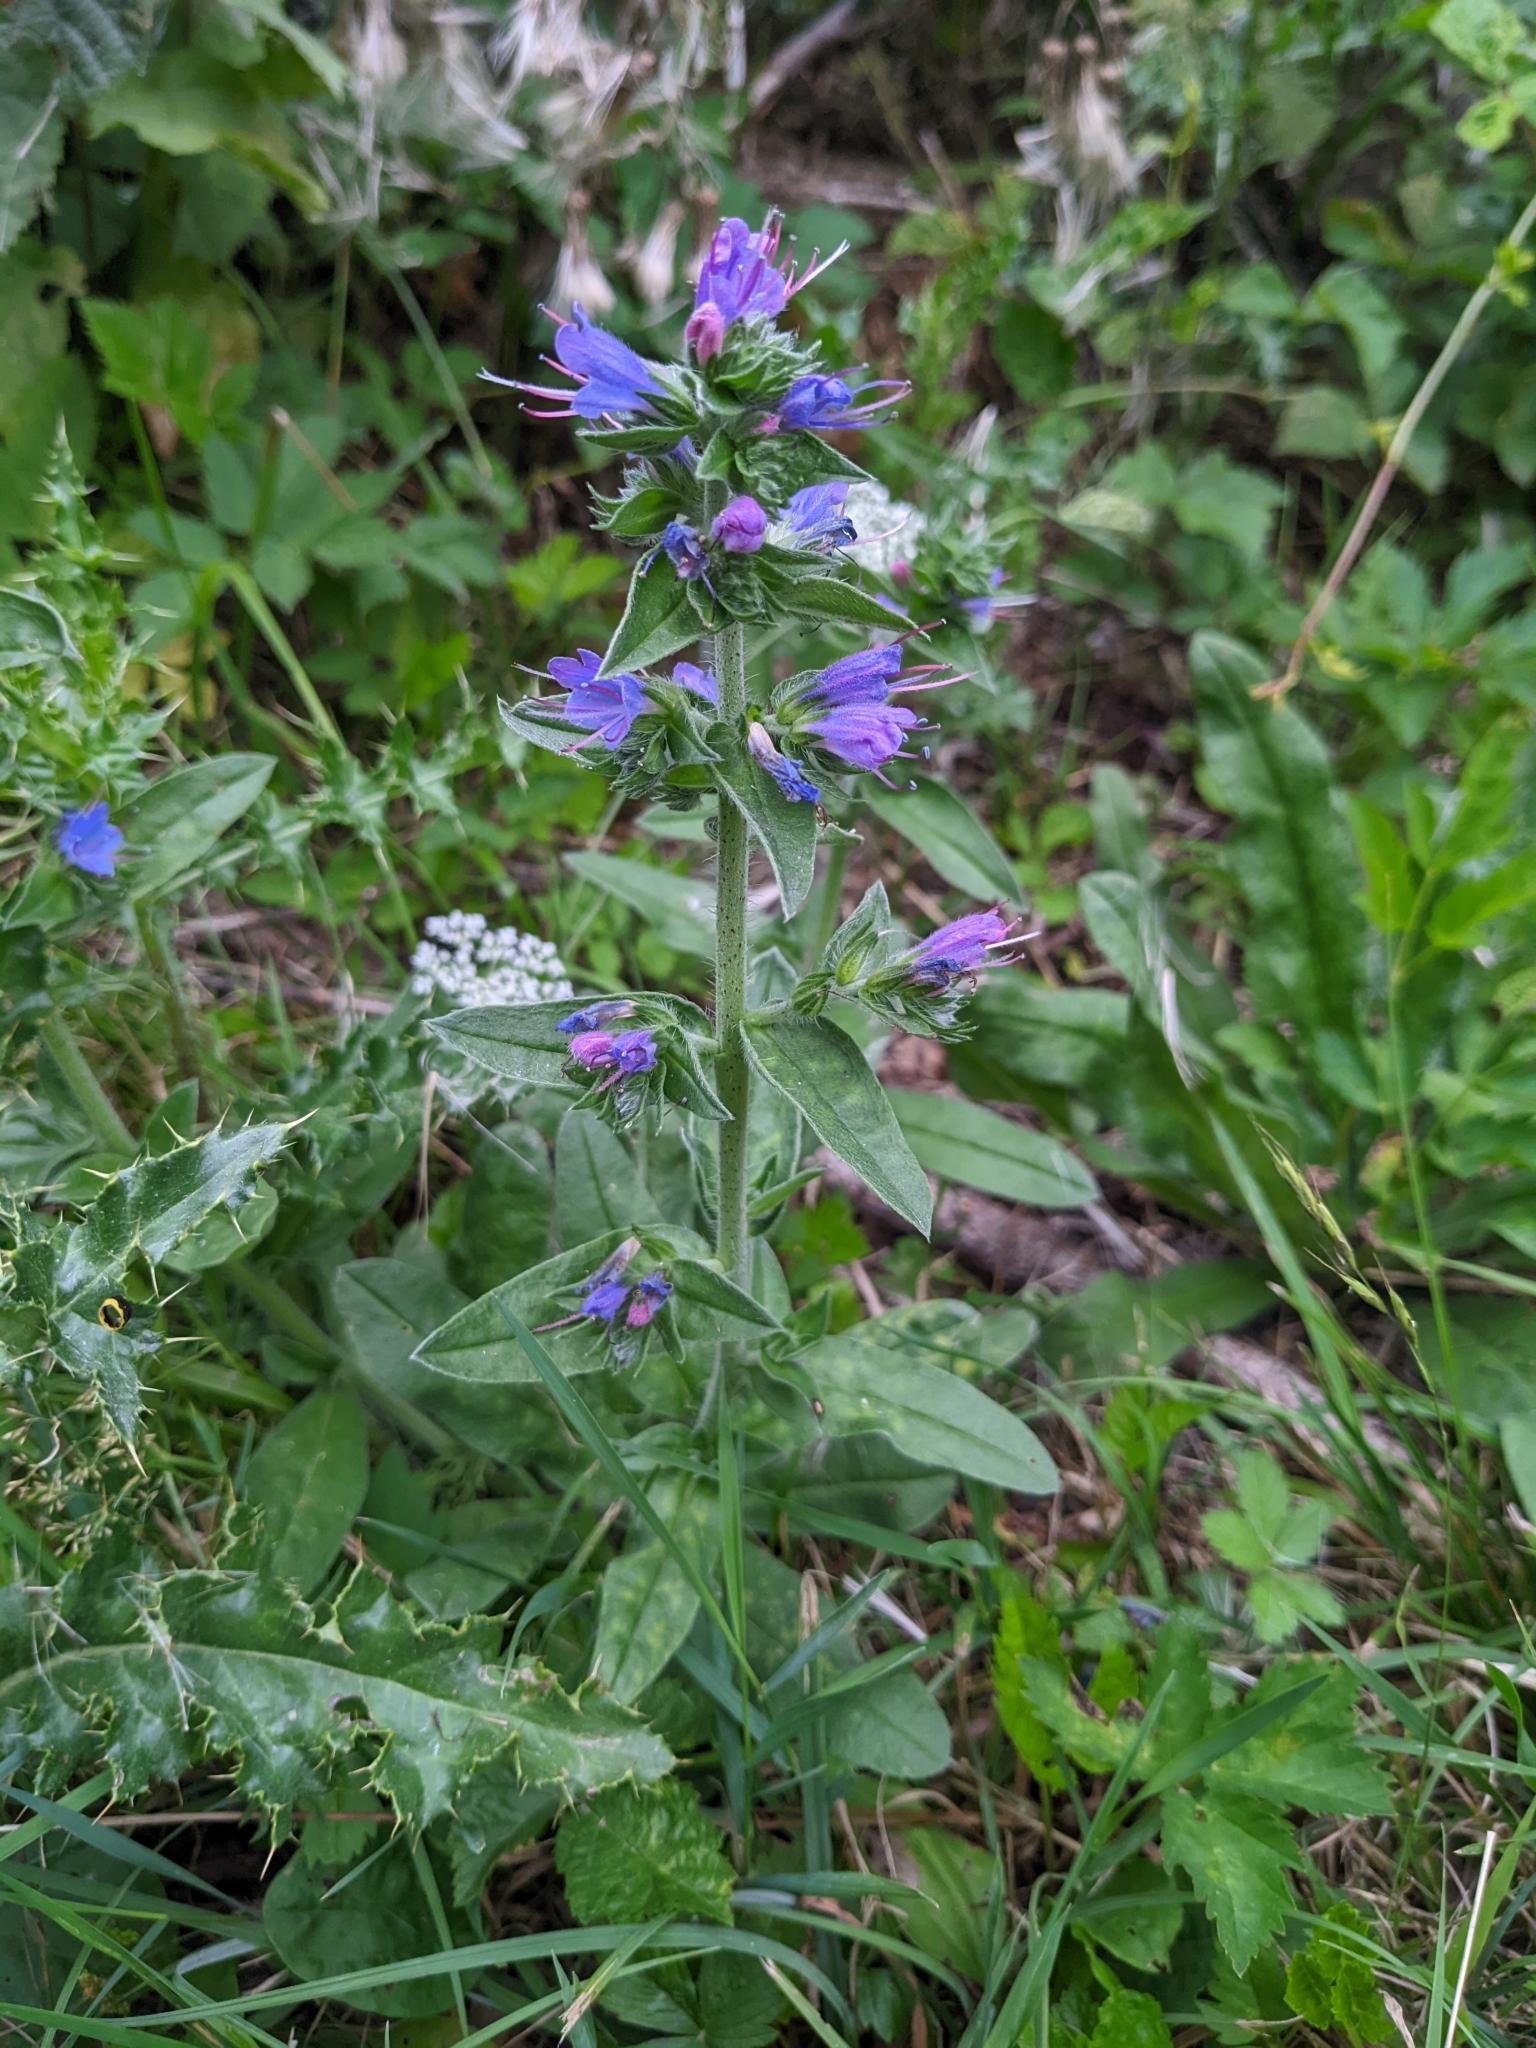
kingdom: Plantae
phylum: Tracheophyta
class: Magnoliopsida
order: Boraginales
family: Boraginaceae
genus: Echium
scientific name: Echium vulgare
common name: Common viper's bugloss
